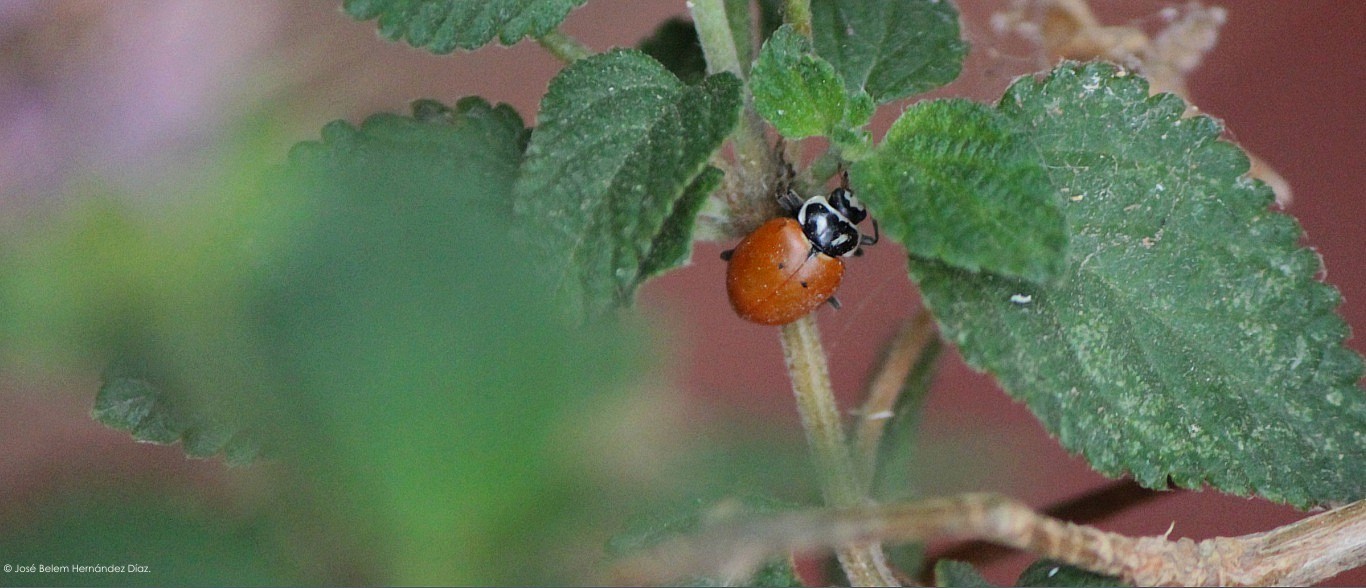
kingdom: Animalia
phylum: Arthropoda
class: Insecta
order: Coleoptera
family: Coccinellidae
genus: Hippodamia
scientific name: Hippodamia convergens
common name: Convergent lady beetle
